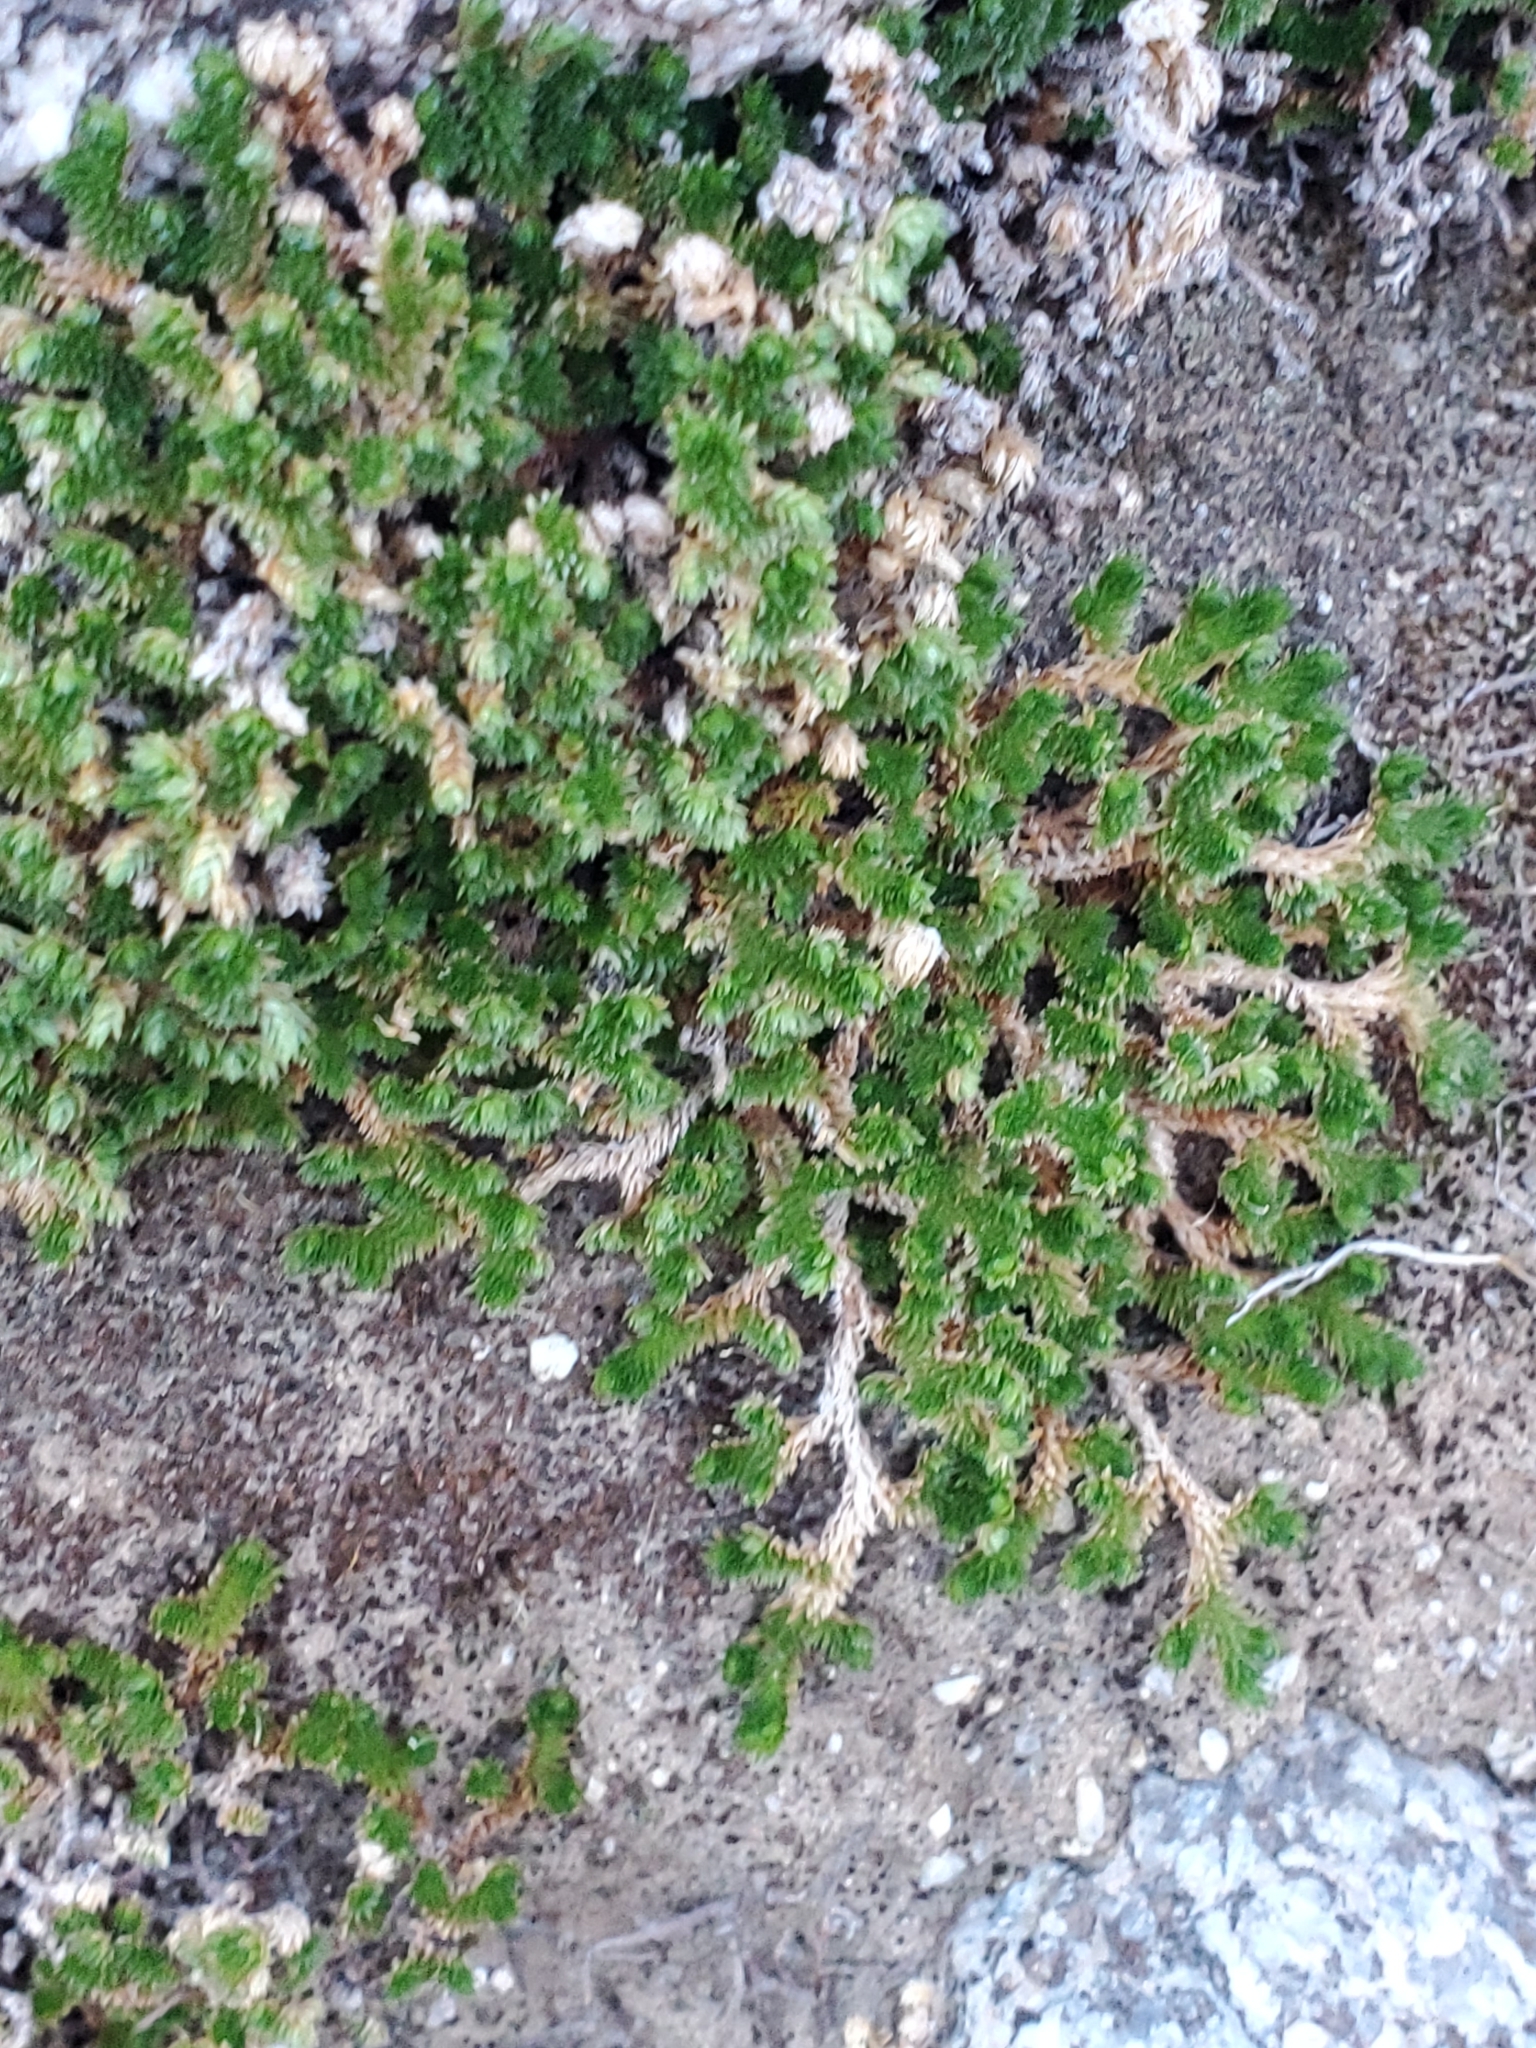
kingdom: Plantae
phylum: Tracheophyta
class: Lycopodiopsida
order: Selaginellales
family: Selaginellaceae
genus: Selaginella
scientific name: Selaginella eremophila
